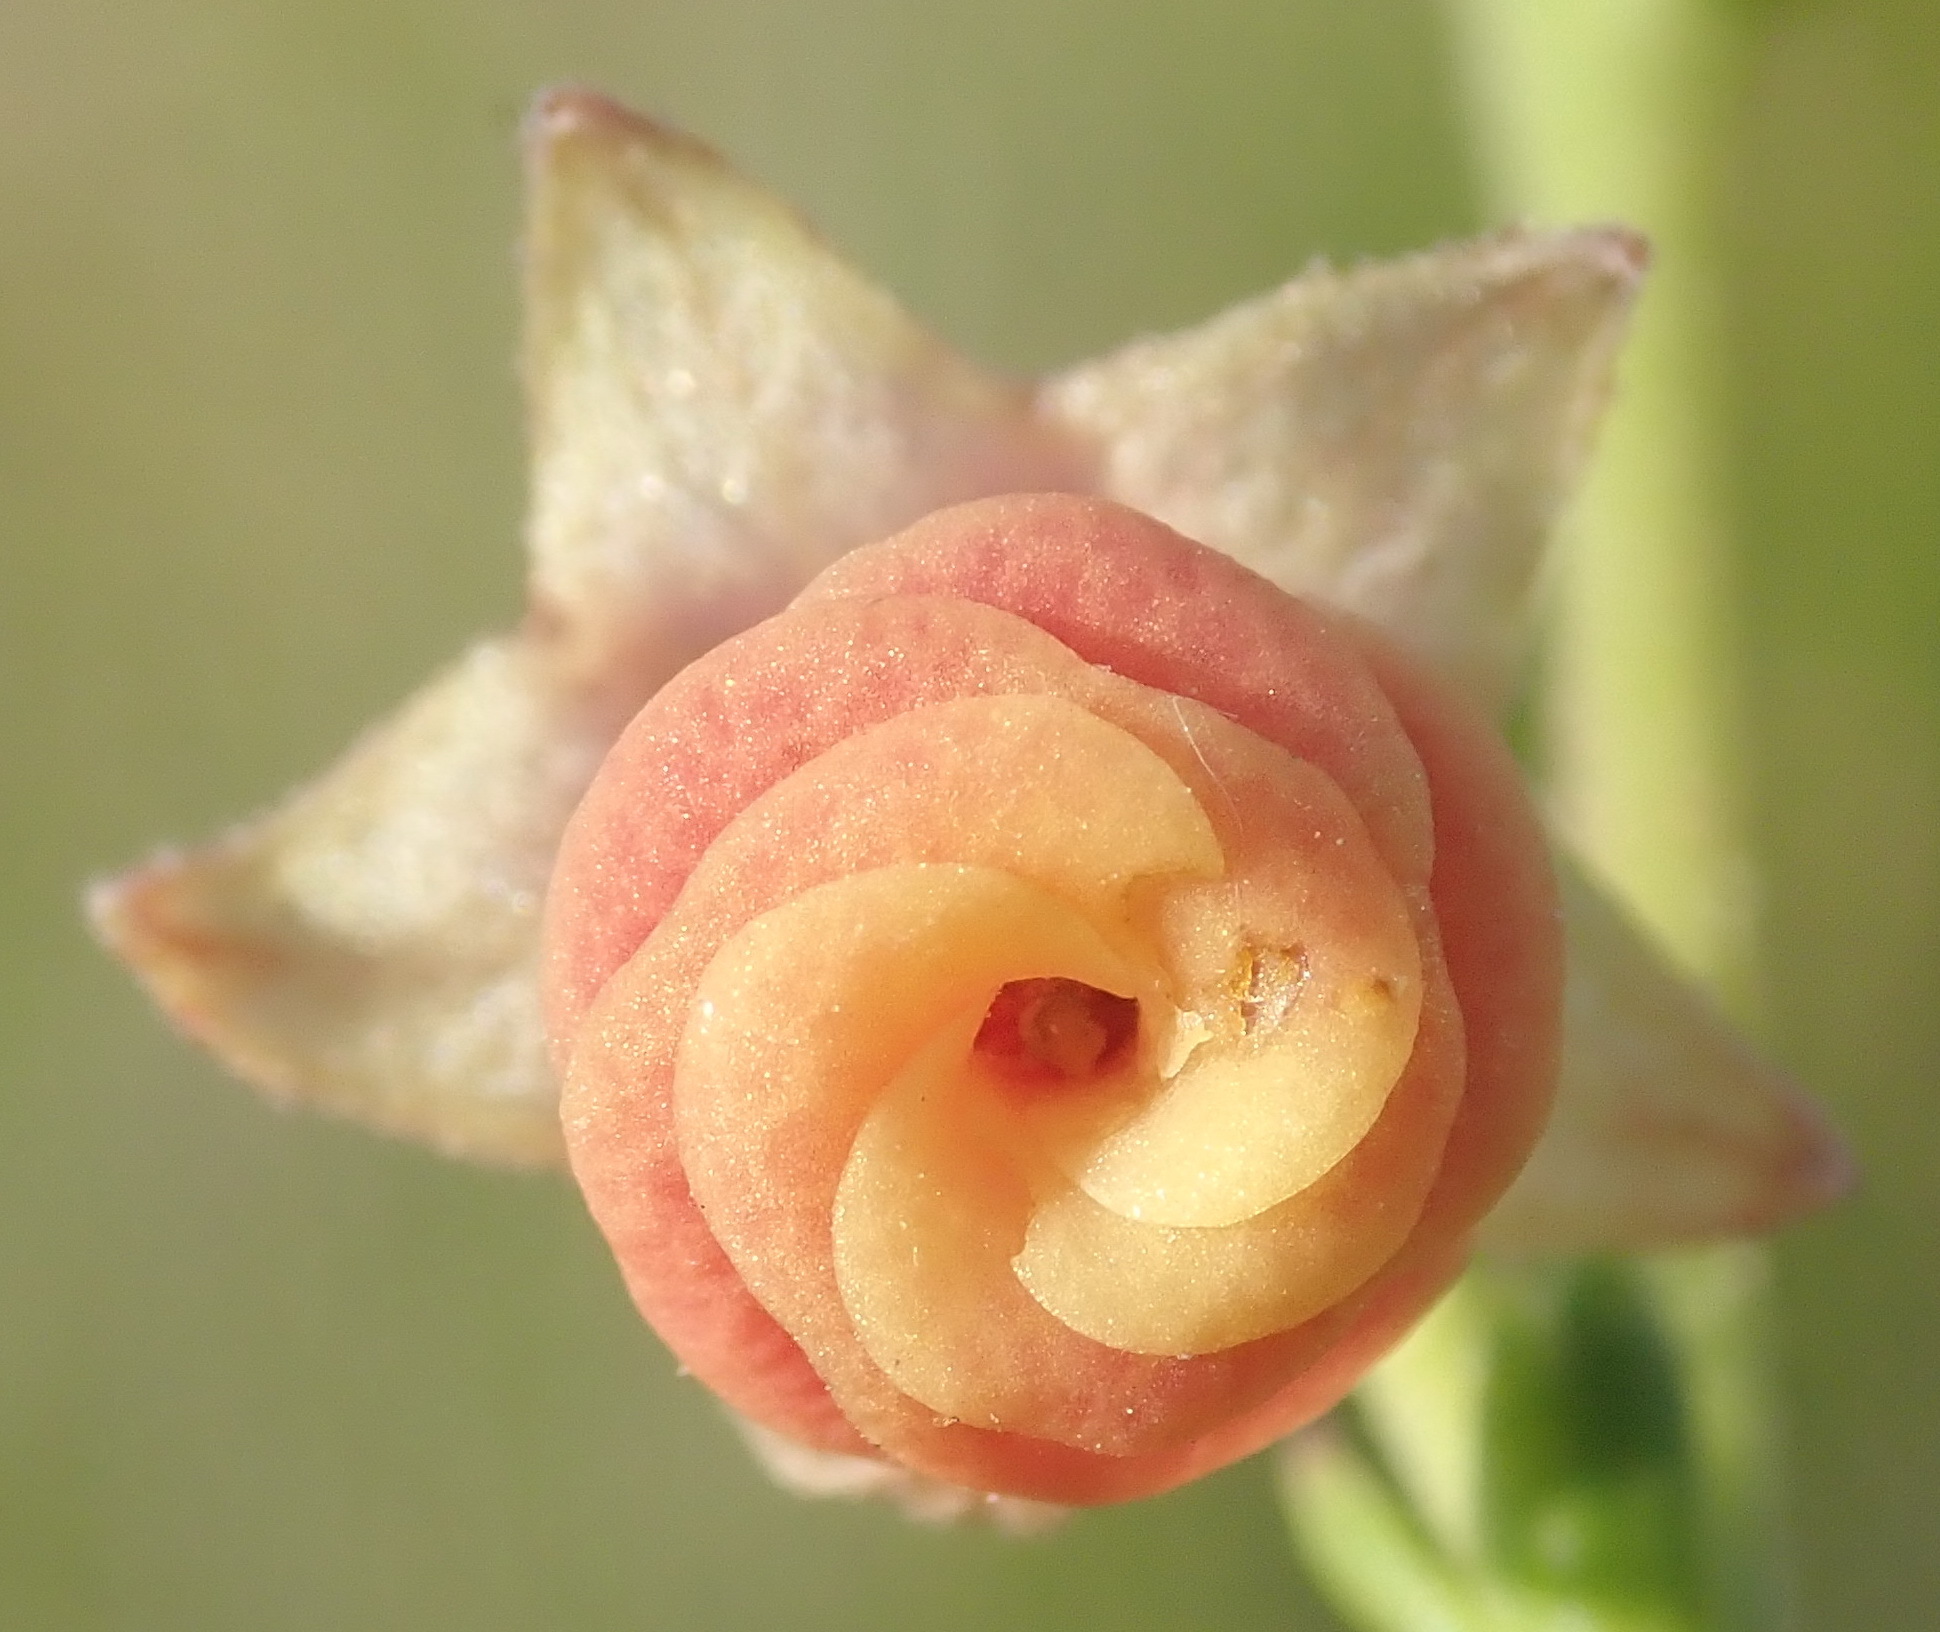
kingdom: Plantae
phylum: Tracheophyta
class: Magnoliopsida
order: Malvales
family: Malvaceae
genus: Hermannia
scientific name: Hermannia flammula
